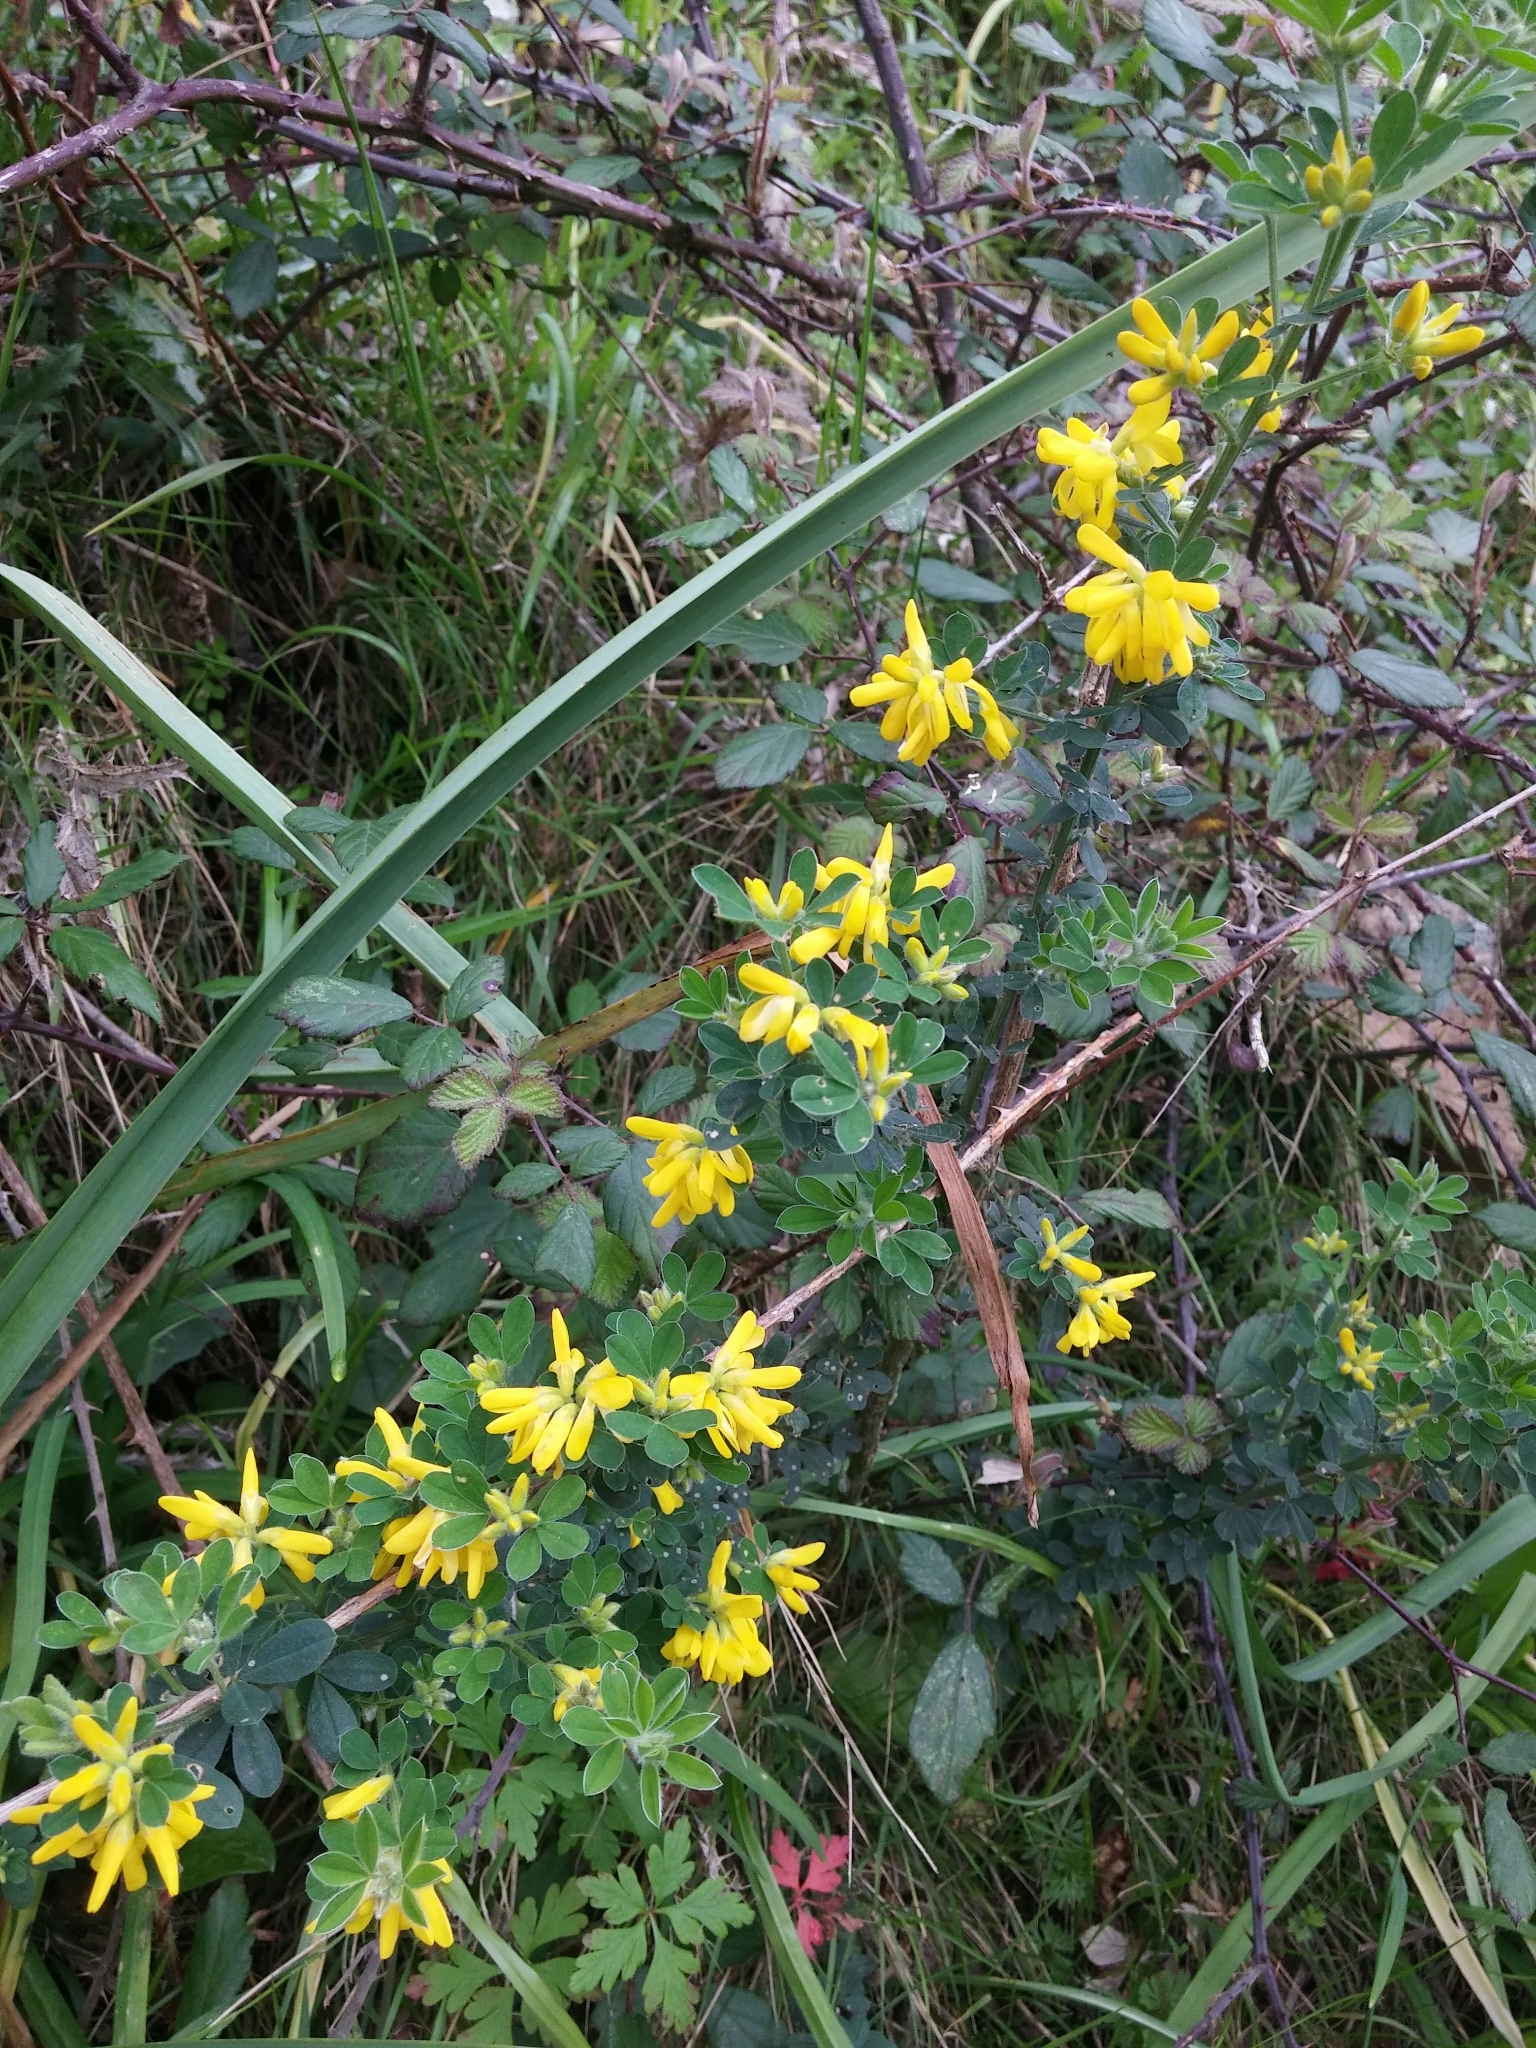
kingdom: Plantae
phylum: Tracheophyta
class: Magnoliopsida
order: Fabales
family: Fabaceae
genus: Genista
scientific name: Genista monspessulana
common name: Montpellier broom
